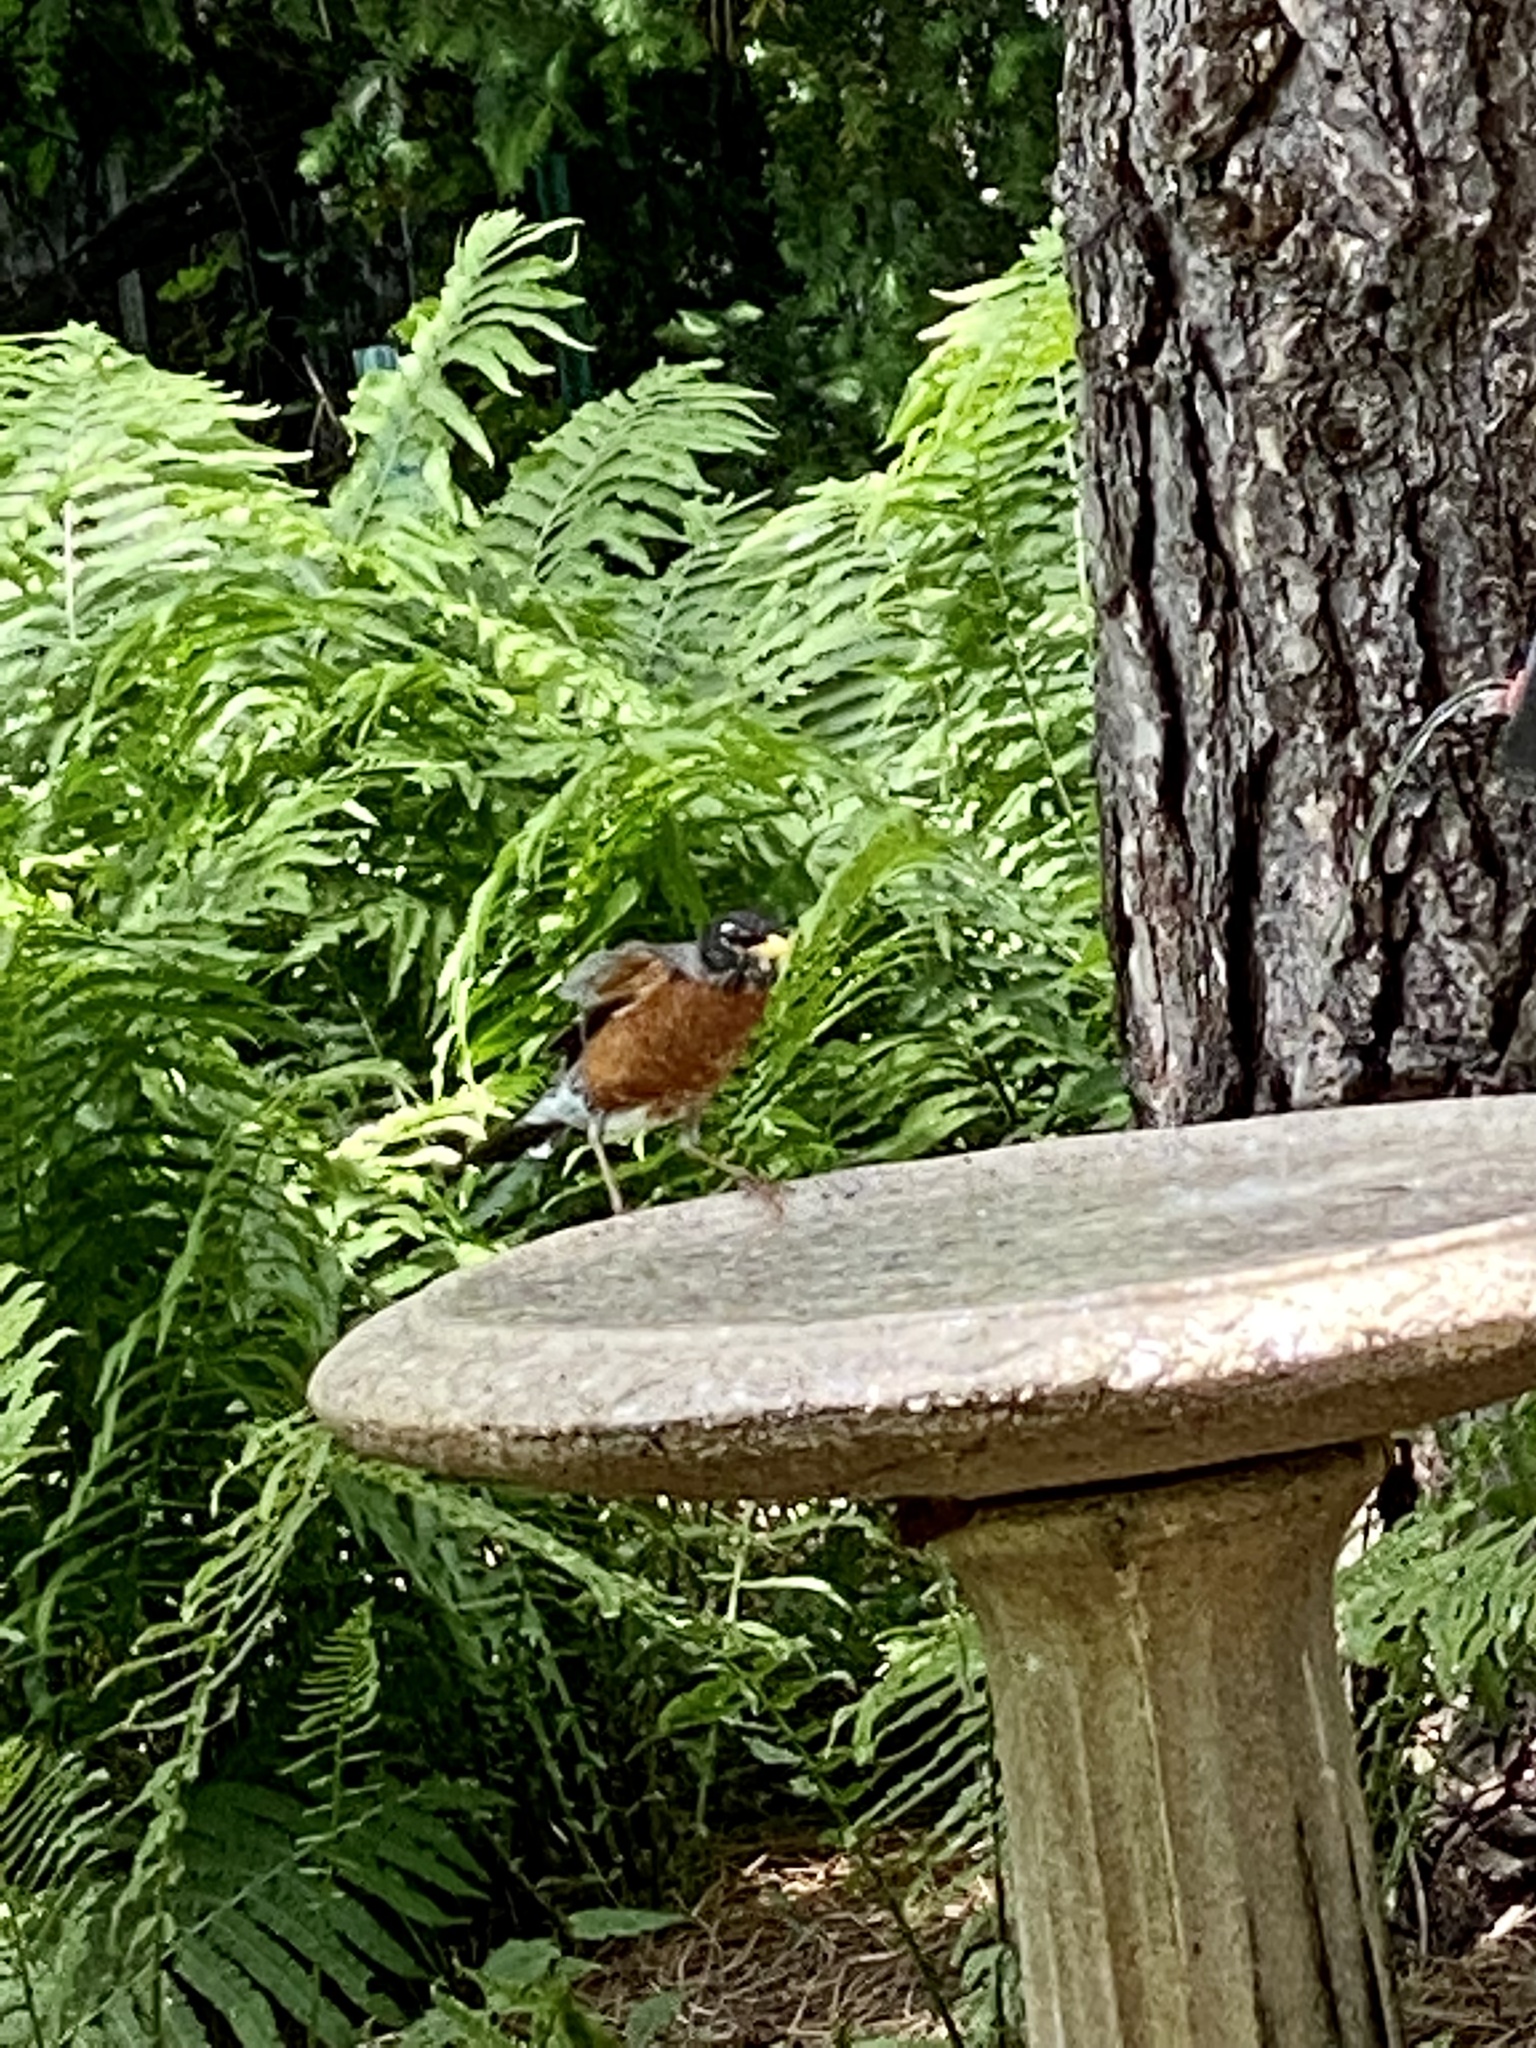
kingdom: Animalia
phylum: Chordata
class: Aves
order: Passeriformes
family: Turdidae
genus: Turdus
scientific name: Turdus migratorius
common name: American robin
